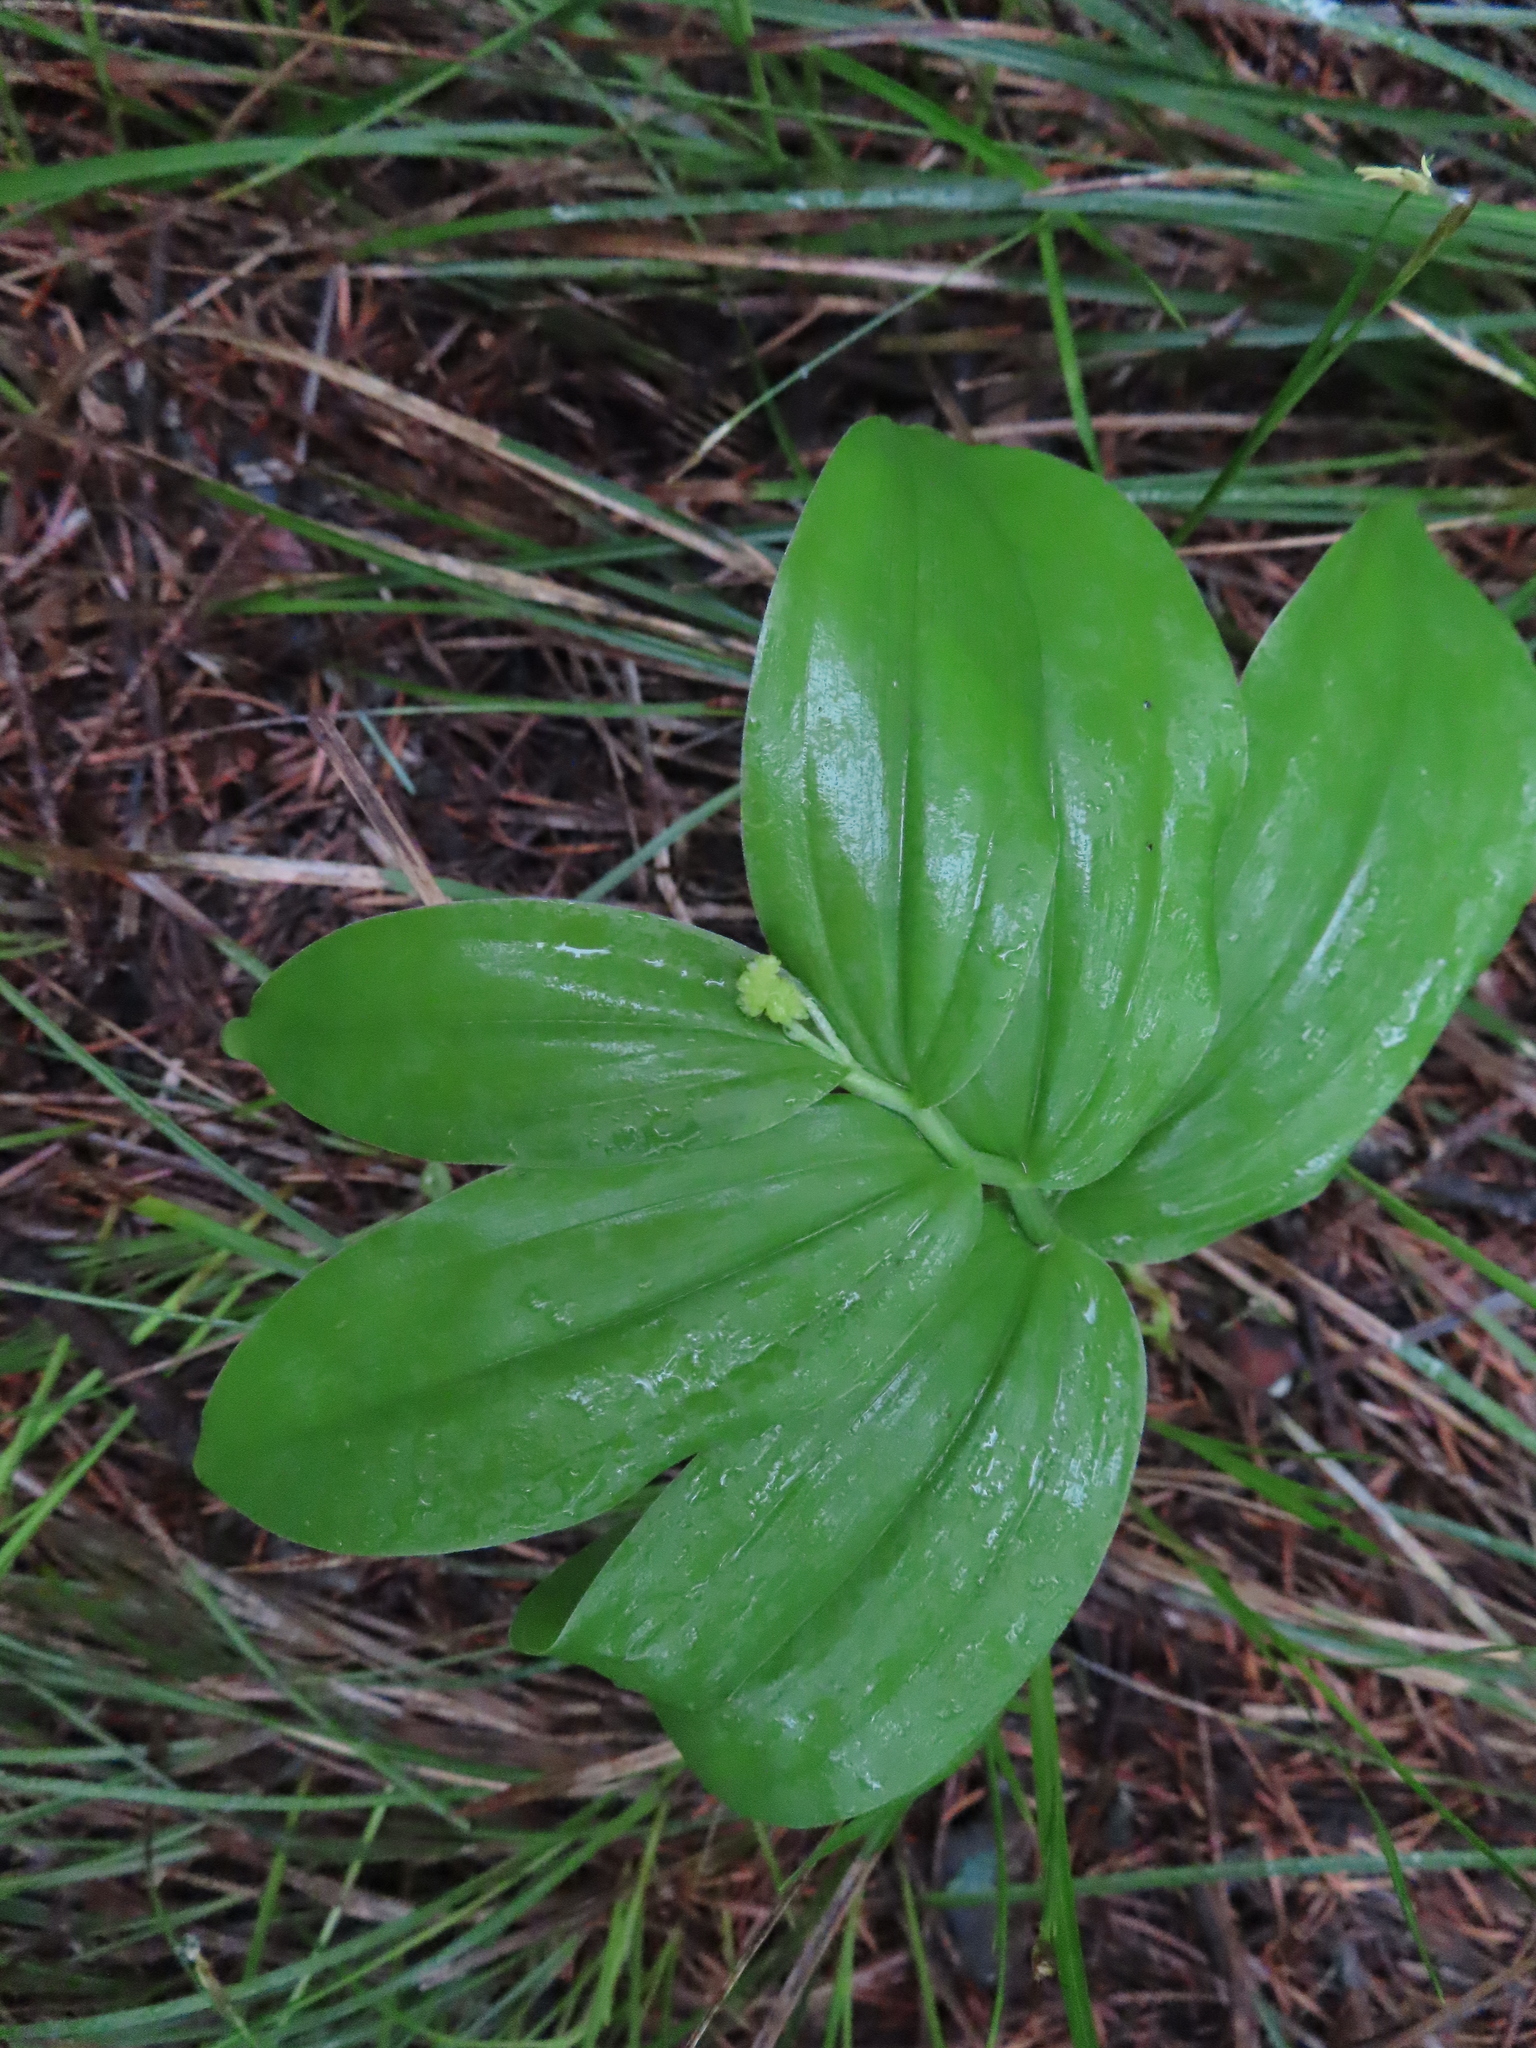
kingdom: Plantae
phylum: Tracheophyta
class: Liliopsida
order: Asparagales
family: Asparagaceae
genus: Maianthemum
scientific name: Maianthemum racemosum
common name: False spikenard
